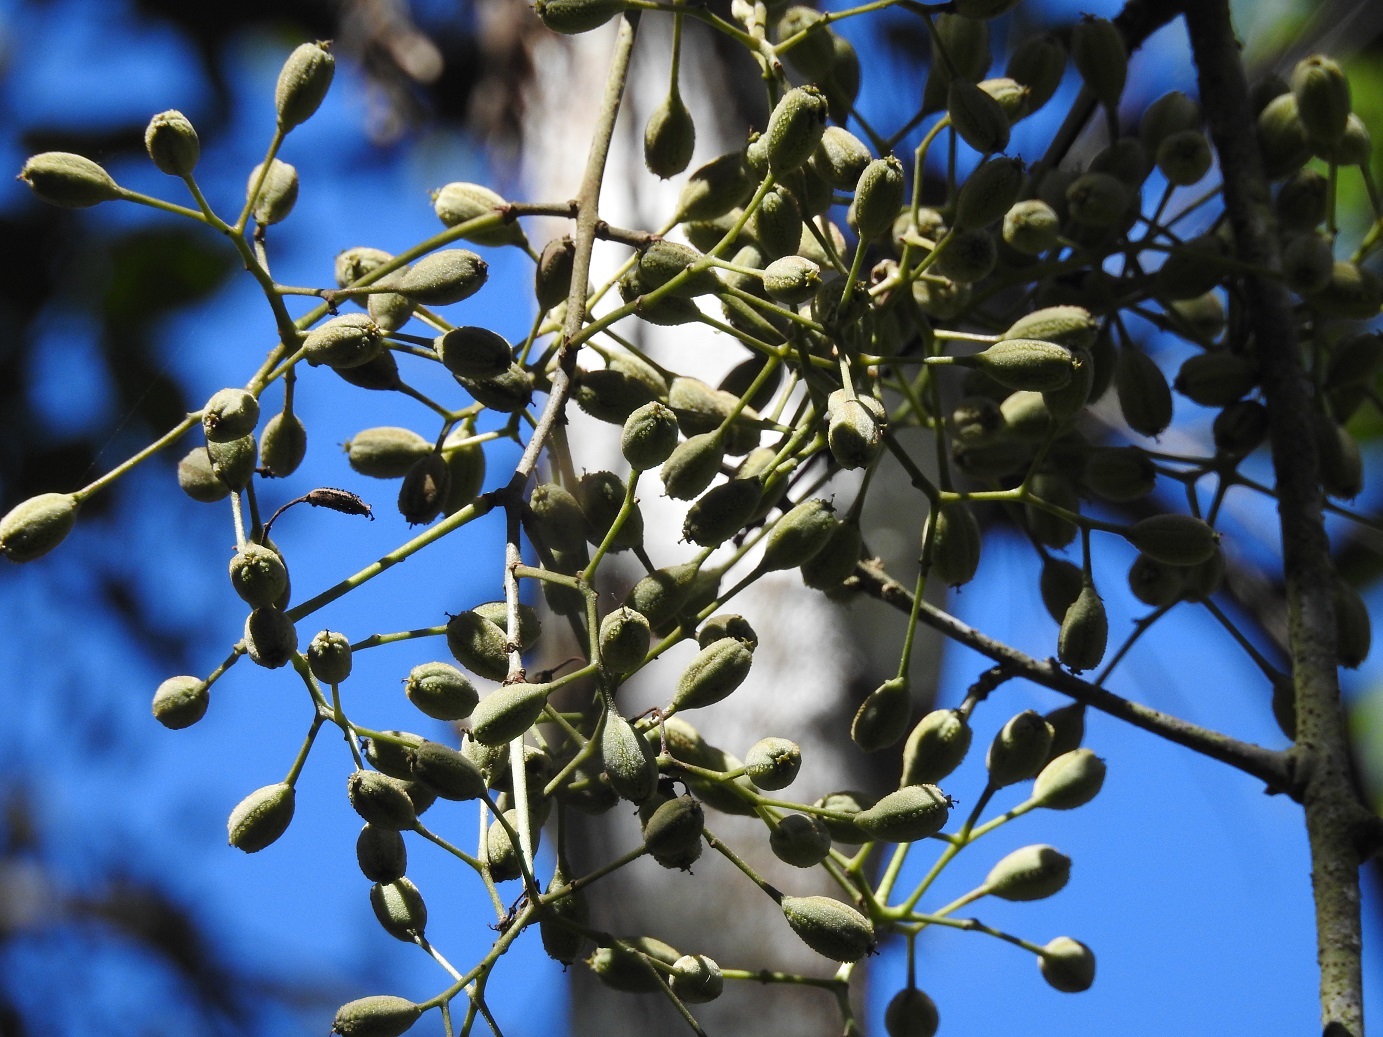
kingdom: Plantae
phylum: Tracheophyta
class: Magnoliopsida
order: Caryophyllales
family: Nyctaginaceae
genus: Pisonia
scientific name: Pisonia macranthocarpa
